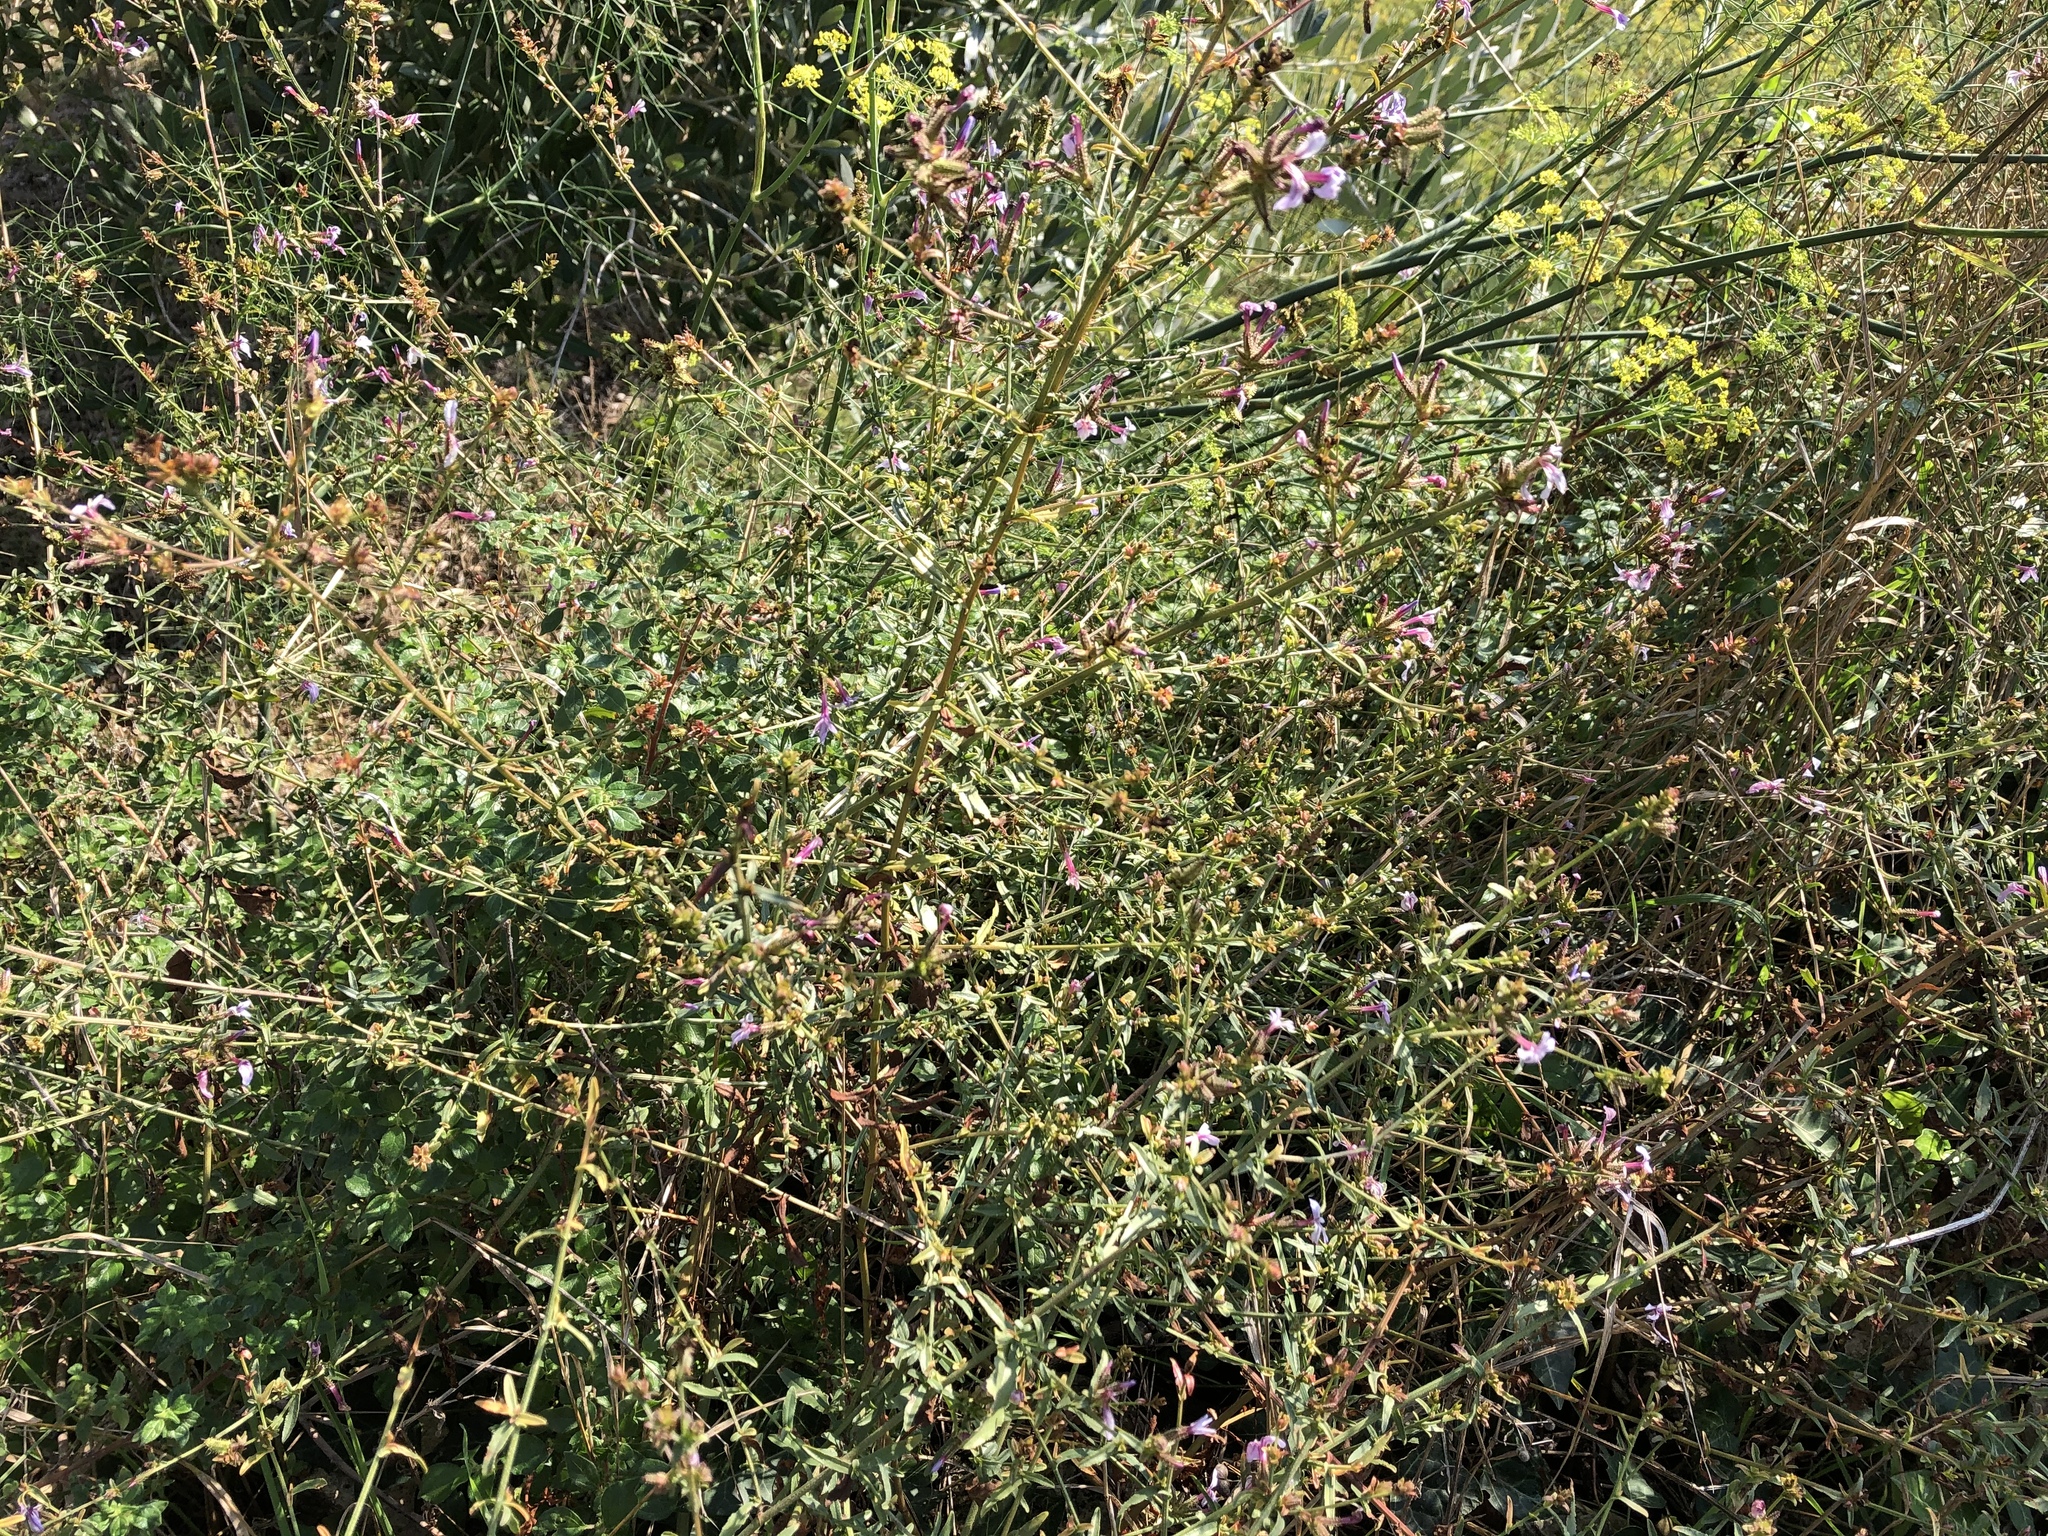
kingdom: Plantae
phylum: Tracheophyta
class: Magnoliopsida
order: Caryophyllales
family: Plumbaginaceae
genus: Plumbago
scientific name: Plumbago europaea
